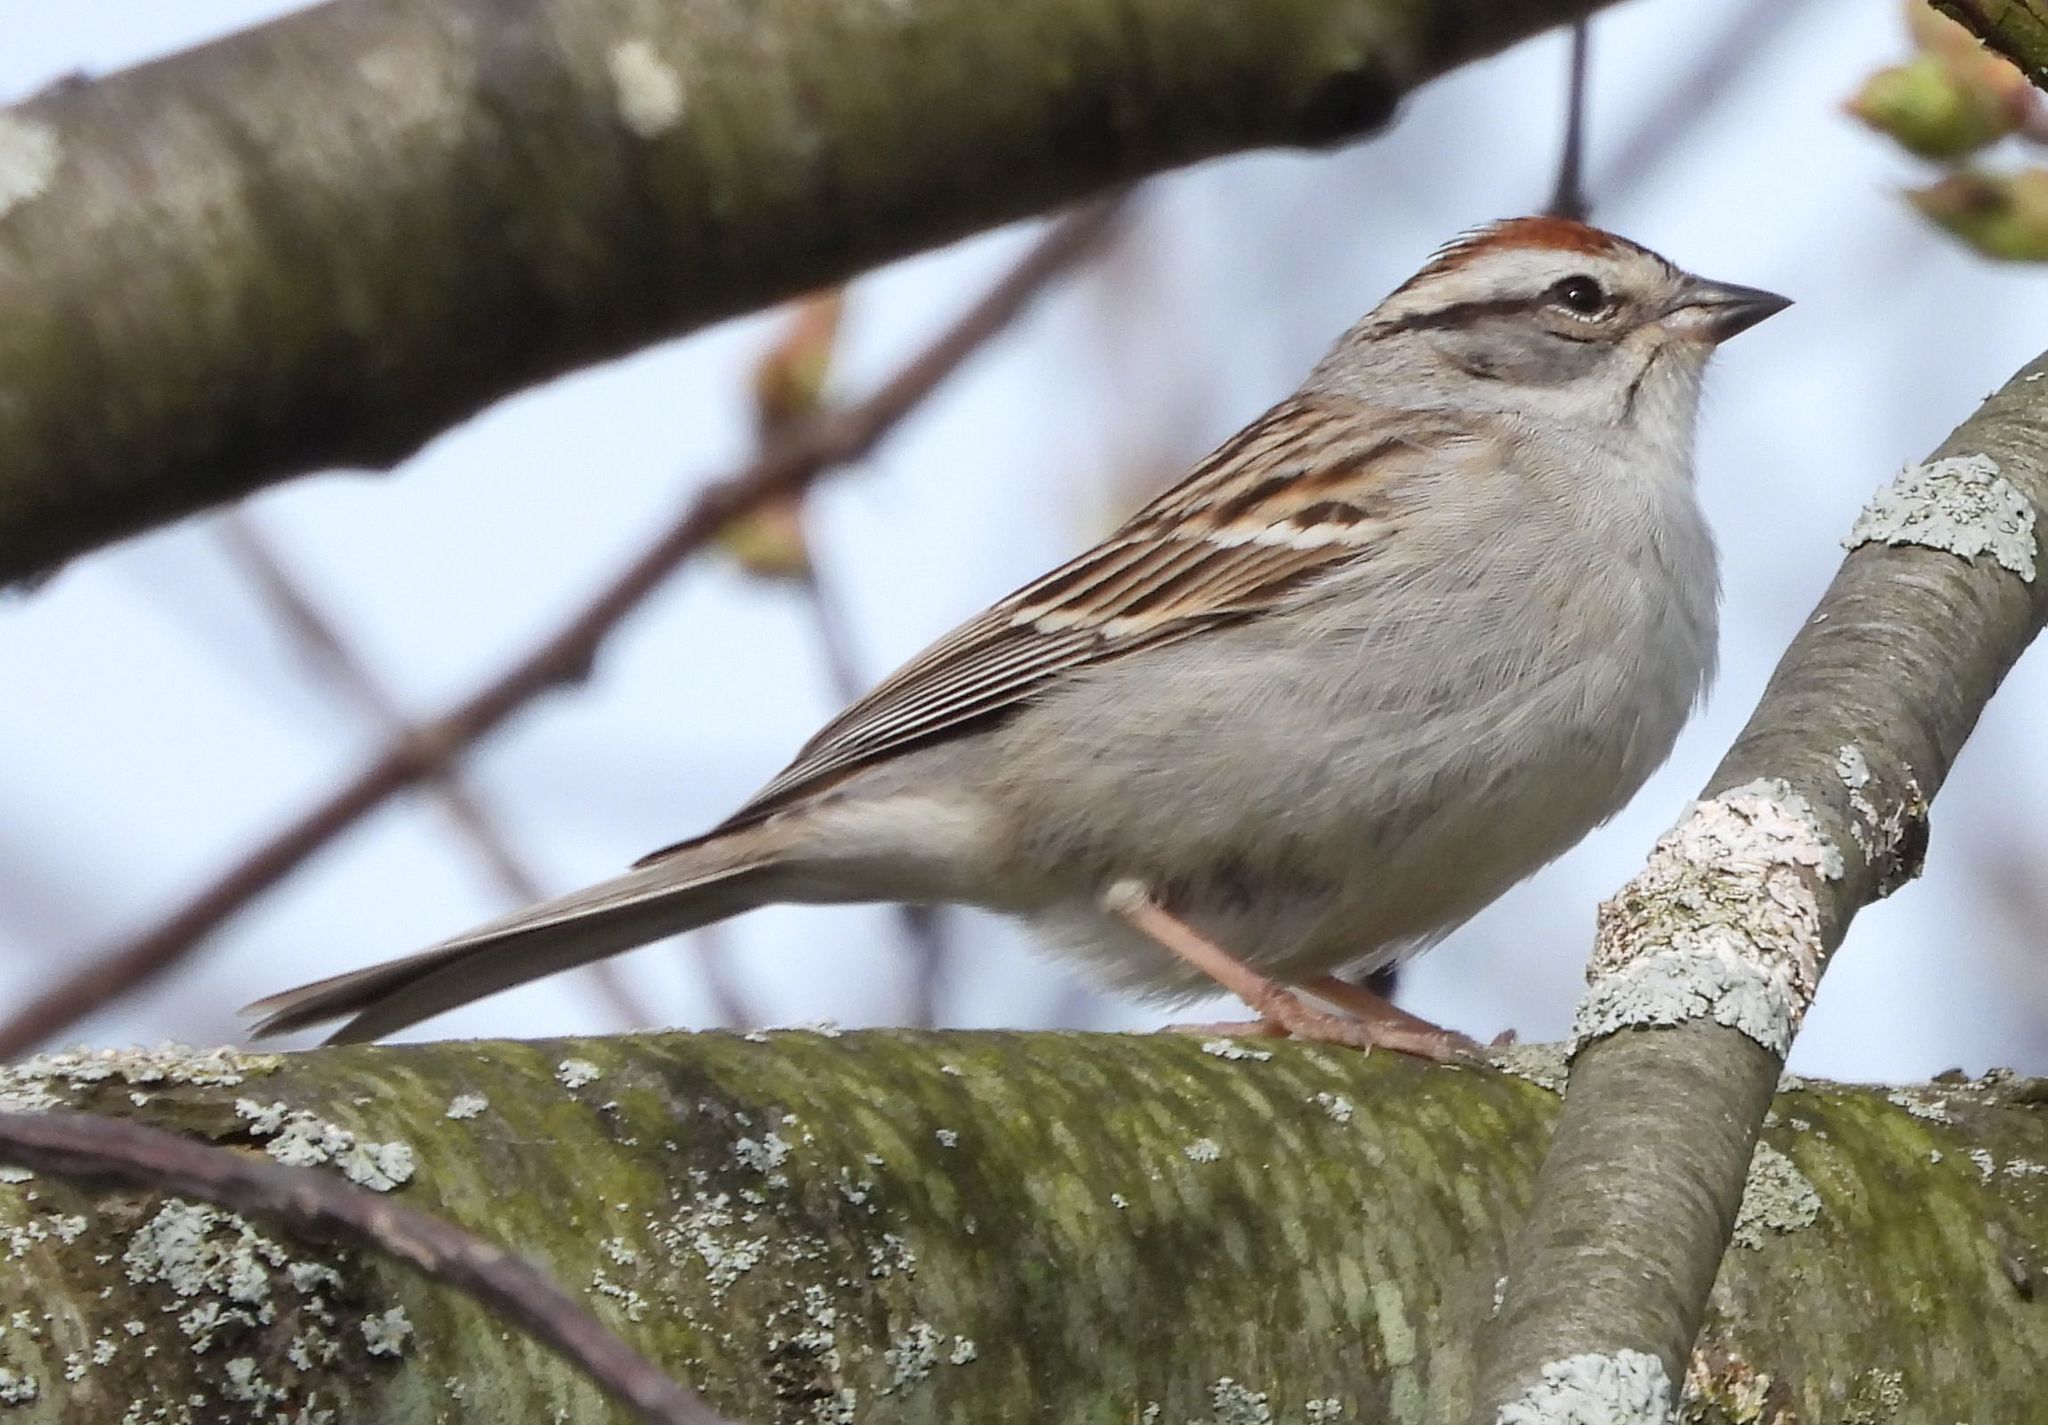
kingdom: Animalia
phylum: Chordata
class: Aves
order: Passeriformes
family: Passerellidae
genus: Spizella
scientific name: Spizella passerina
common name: Chipping sparrow
